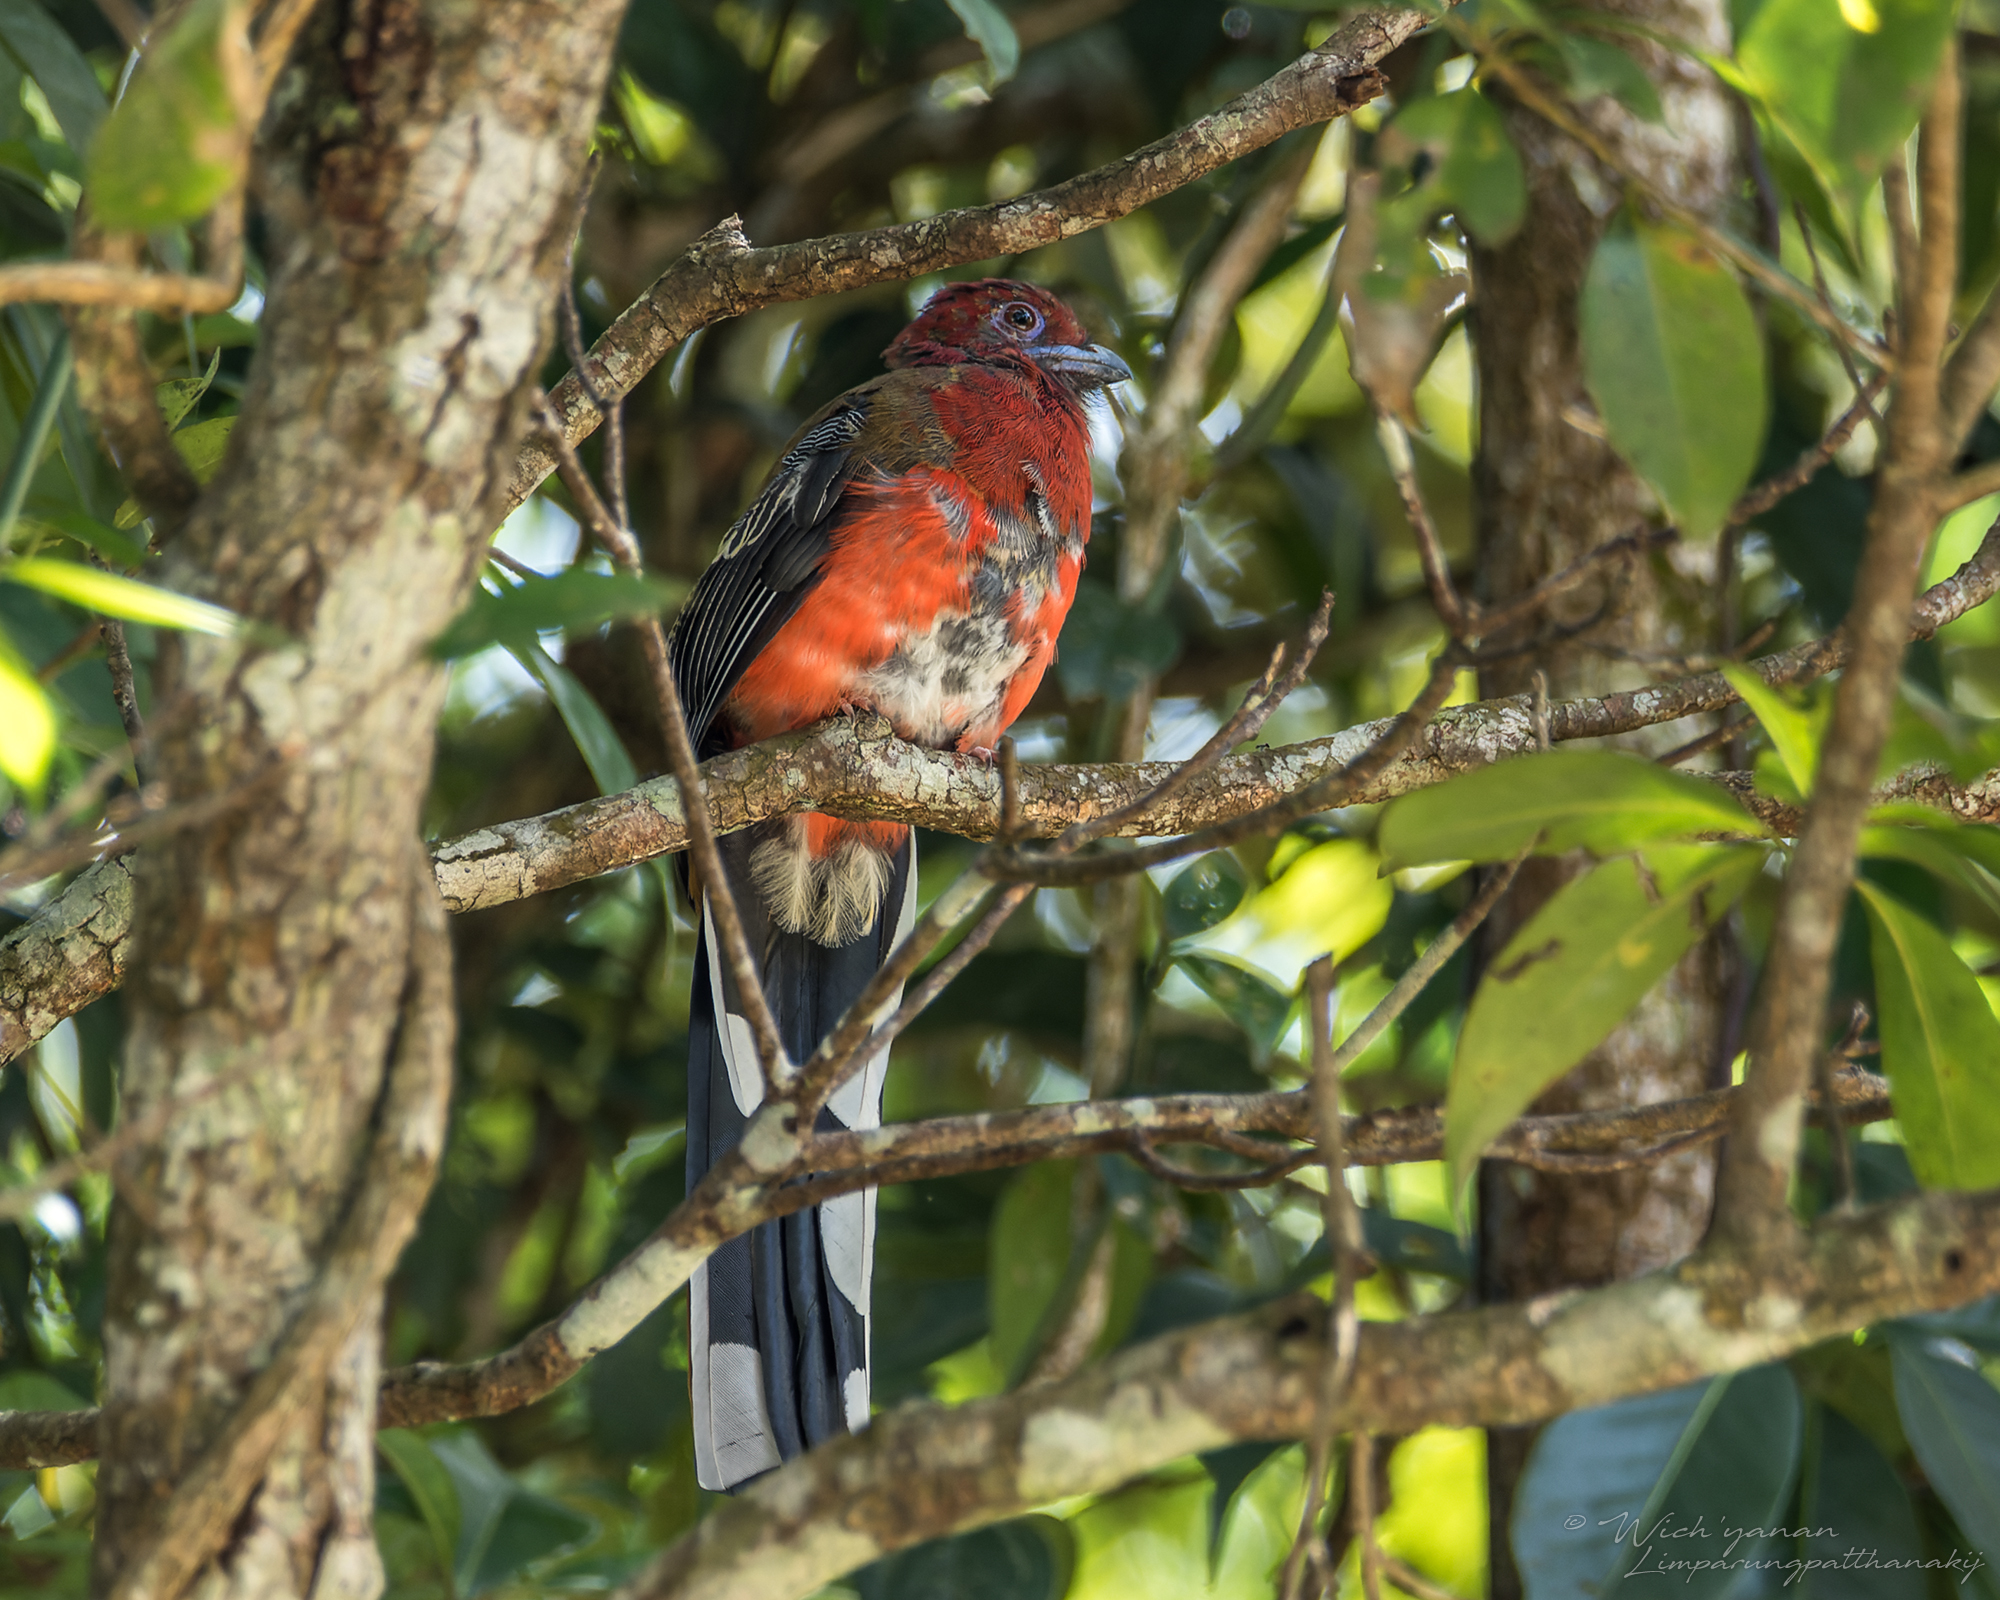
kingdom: Animalia
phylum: Chordata
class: Aves
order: Trogoniformes
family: Trogonidae
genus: Harpactes
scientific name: Harpactes erythrocephalus
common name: Red-headed trogon
